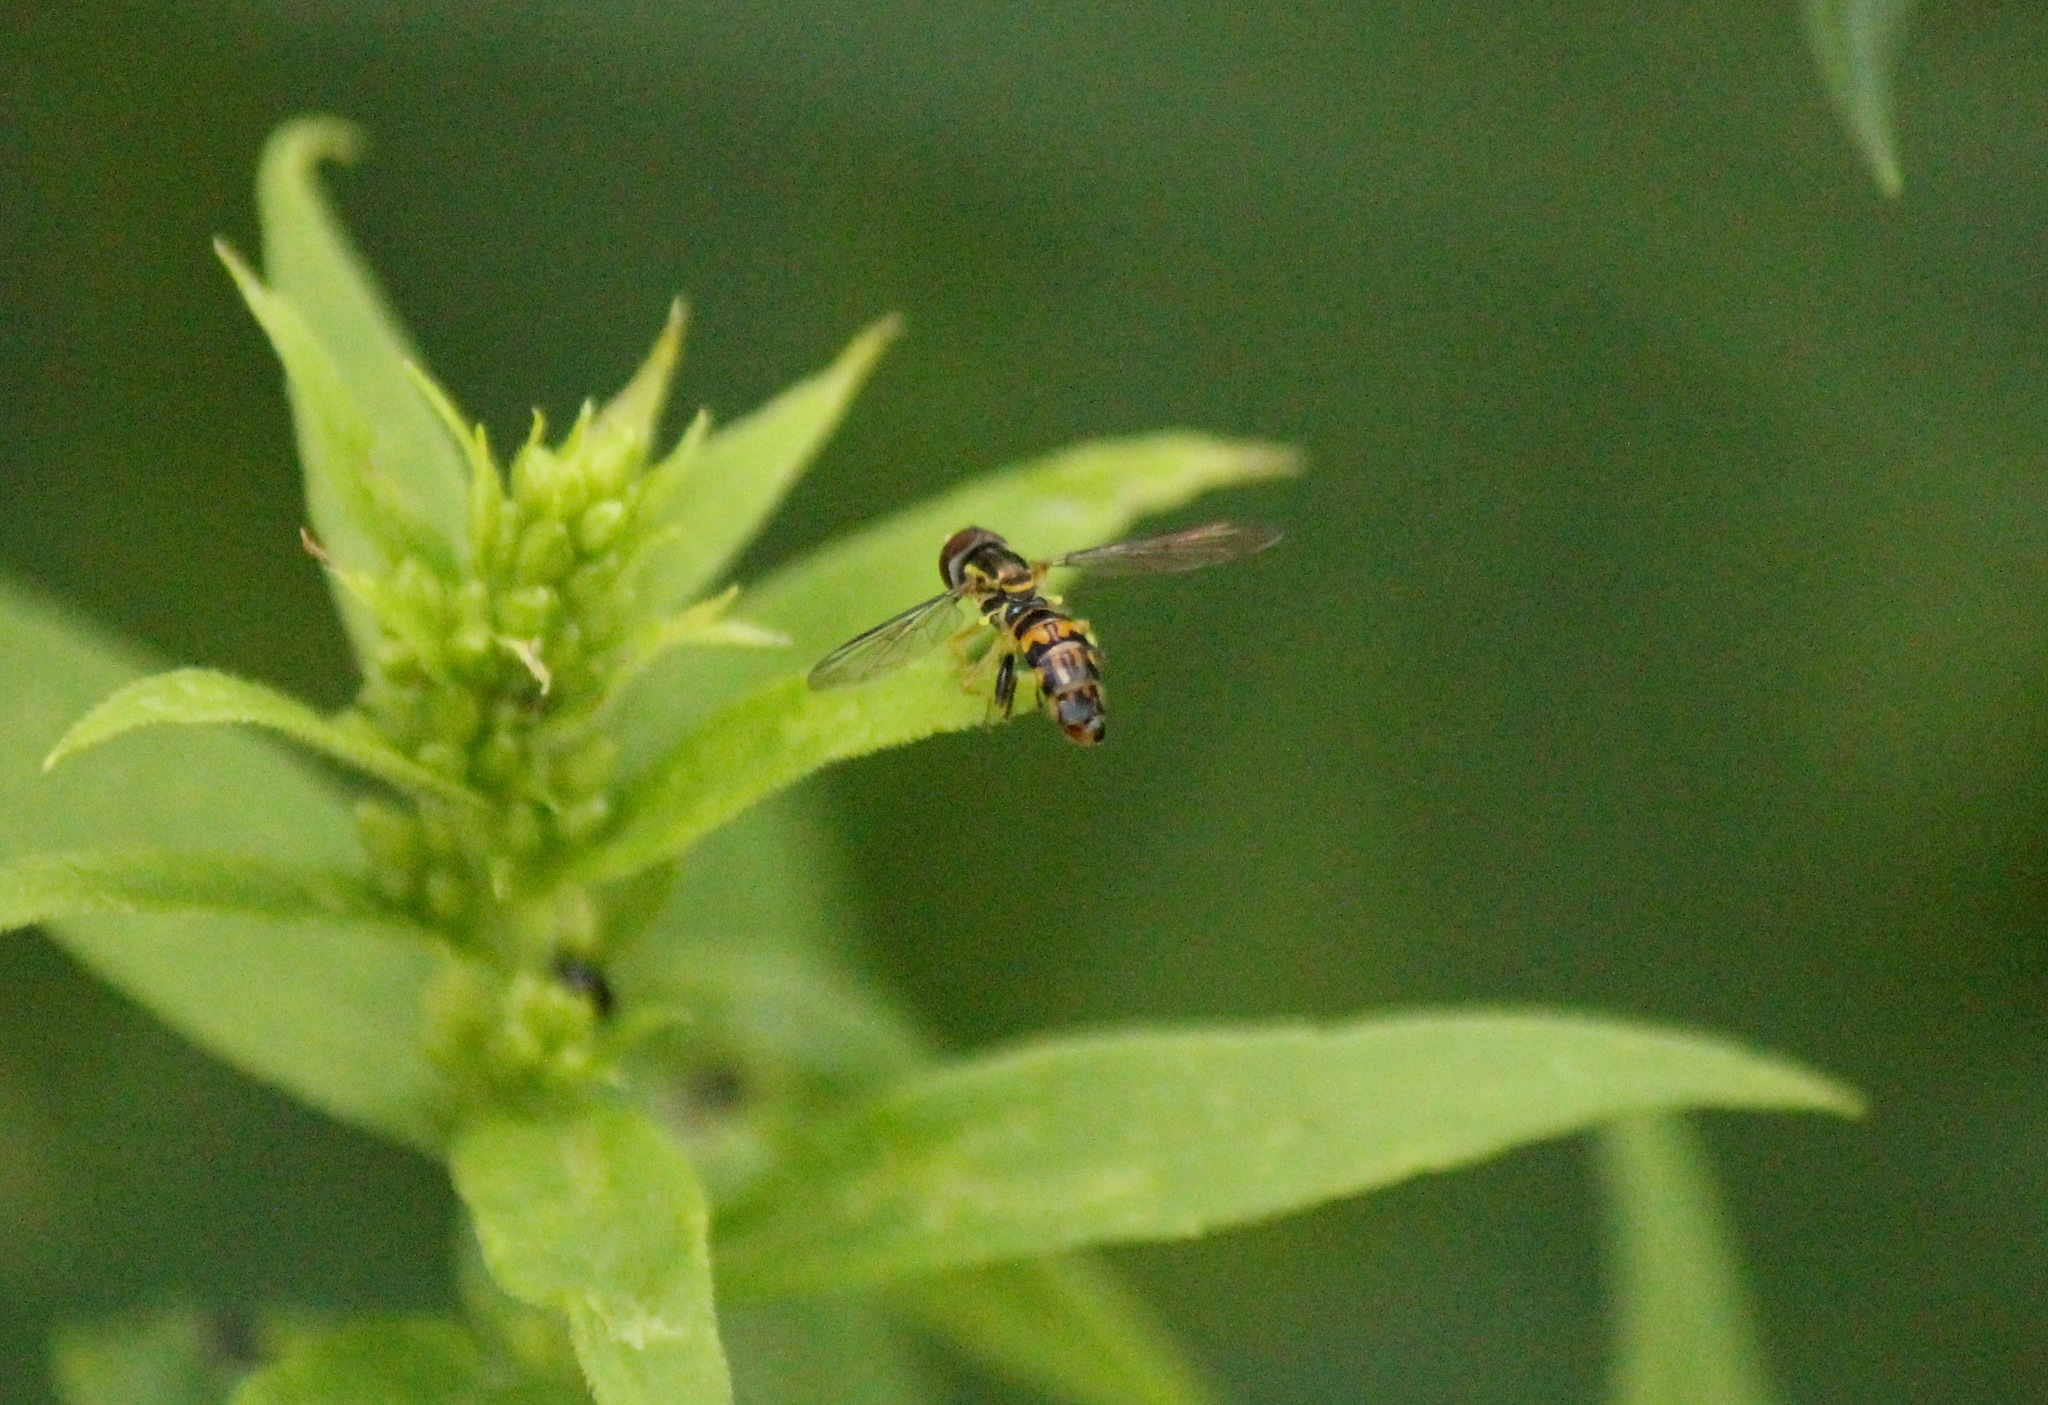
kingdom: Animalia
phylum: Arthropoda
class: Insecta
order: Diptera
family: Syrphidae
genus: Toxomerus
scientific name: Toxomerus geminatus
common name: Eastern calligrapher
